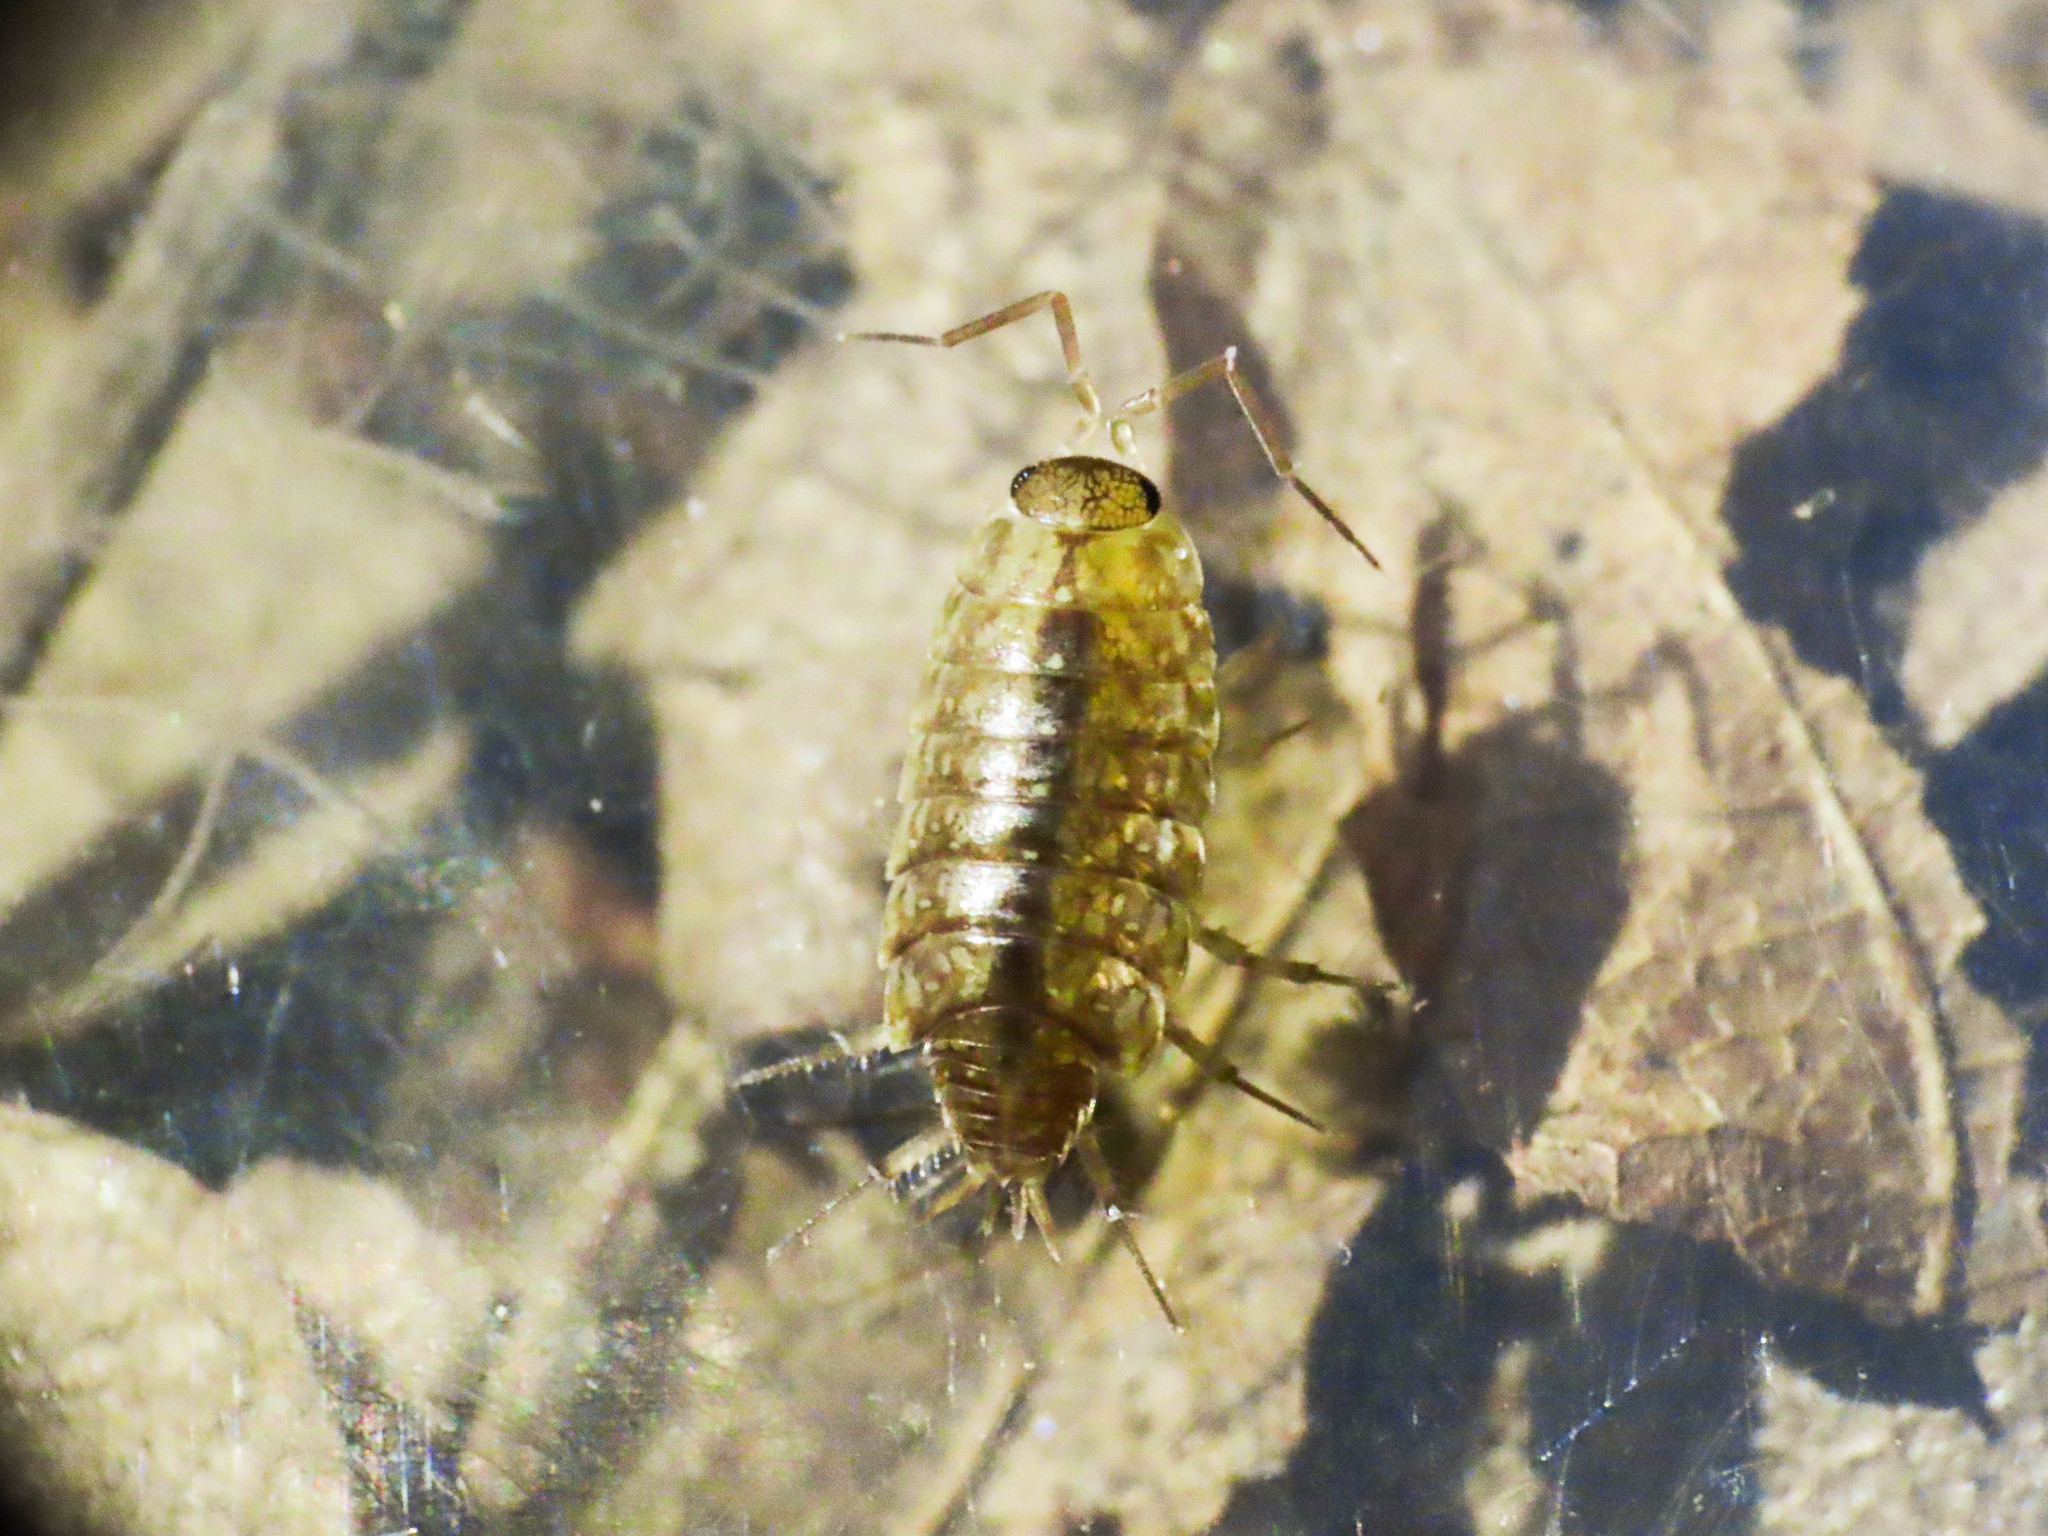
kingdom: Animalia
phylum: Arthropoda
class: Malacostraca
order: Isopoda
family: Philosciidae
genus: Philoscia
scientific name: Philoscia affinis
